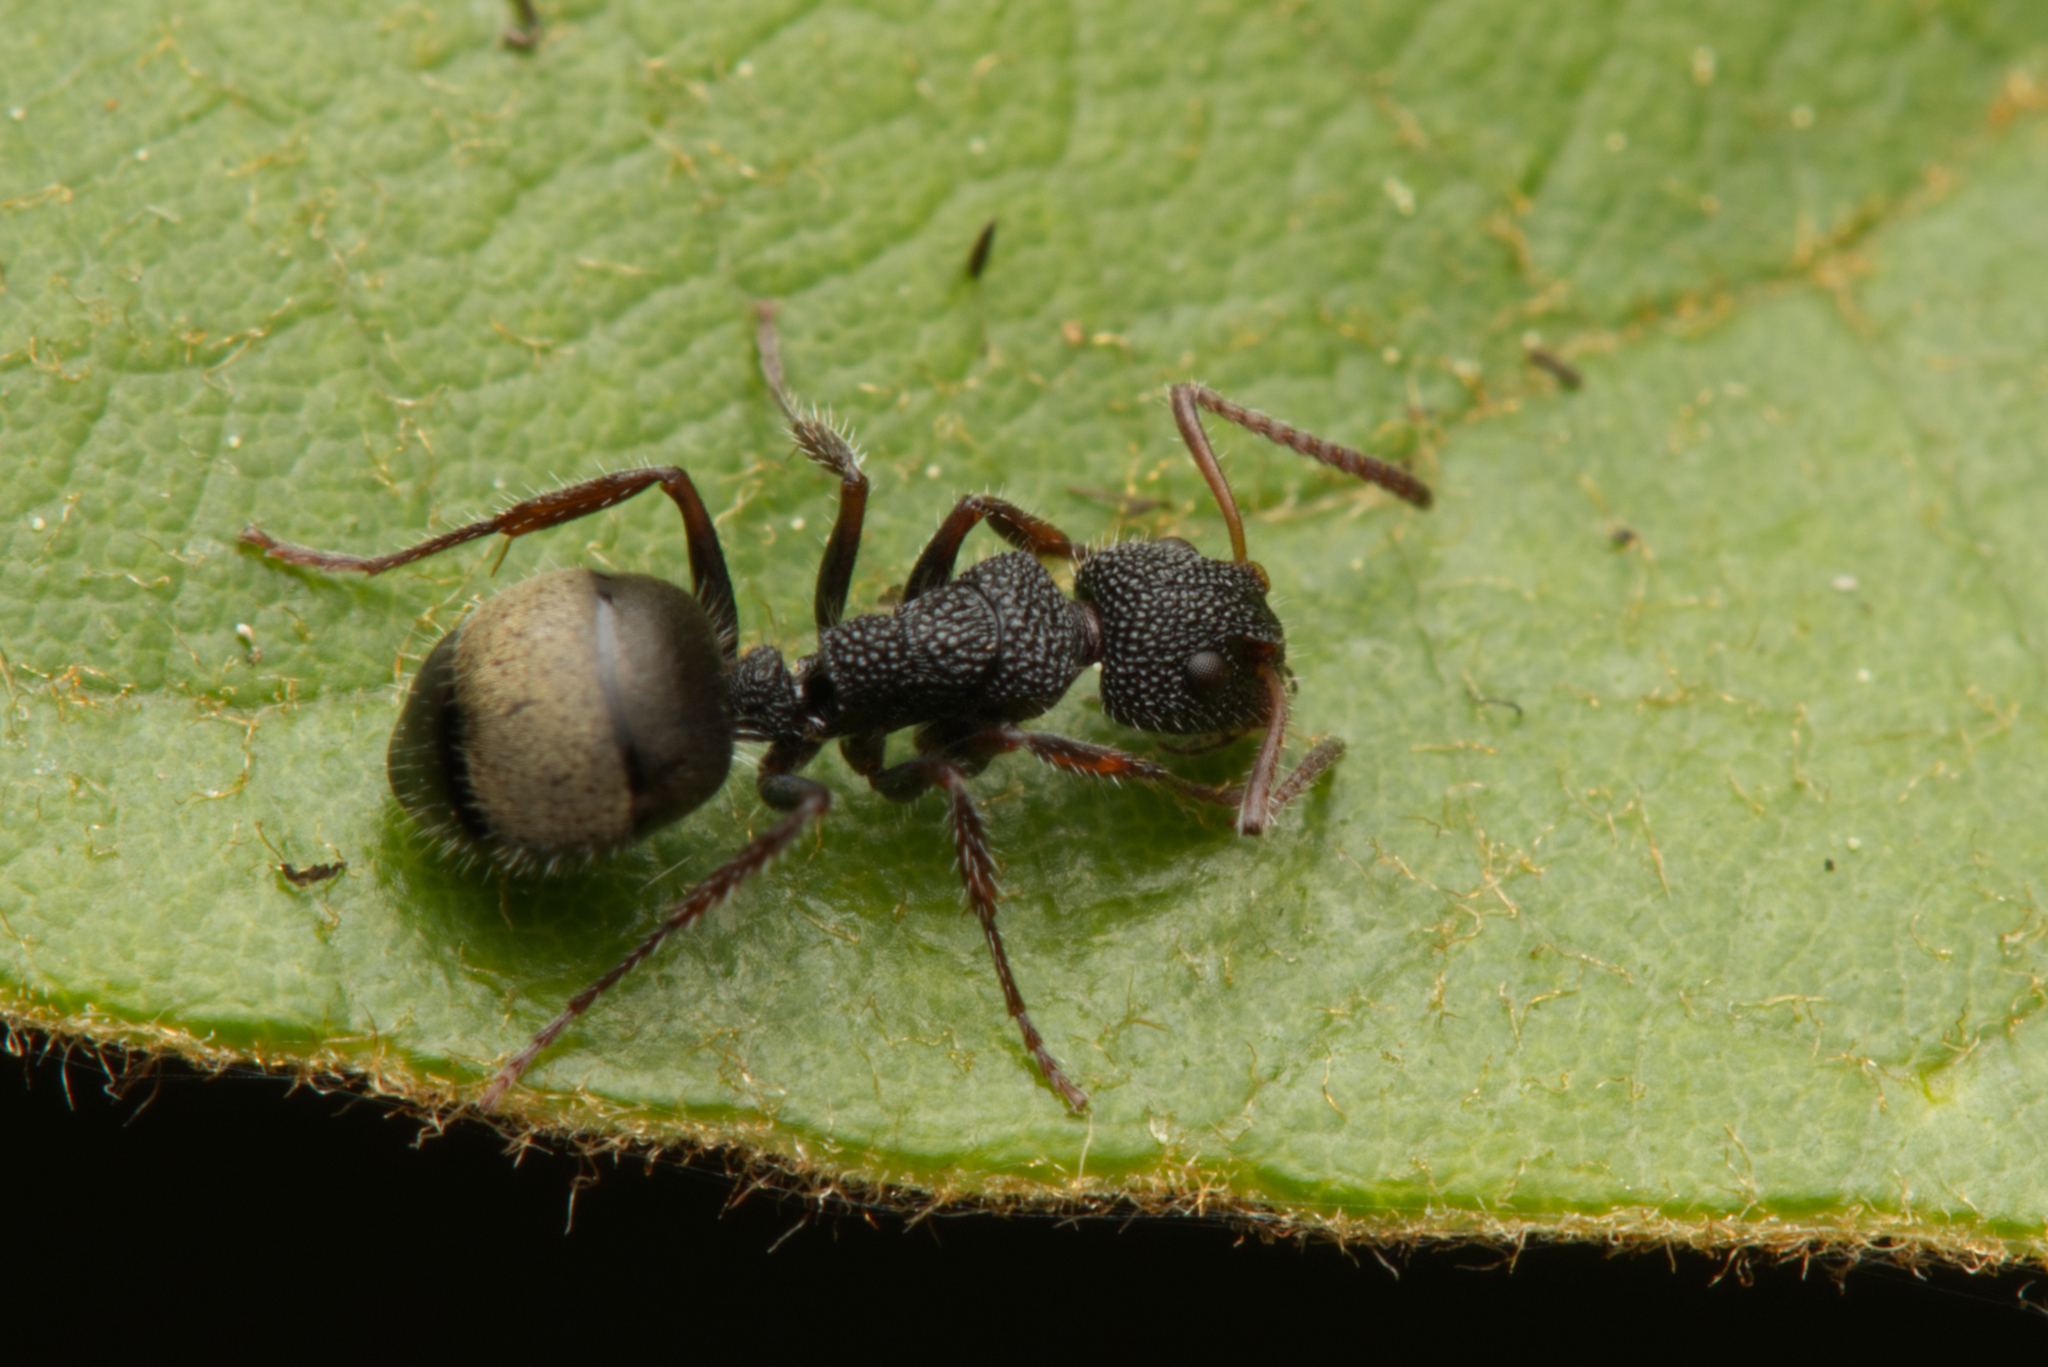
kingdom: Animalia
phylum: Arthropoda
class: Insecta
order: Hymenoptera
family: Formicidae
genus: Dolichoderus
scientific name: Dolichoderus scrobiculatus
